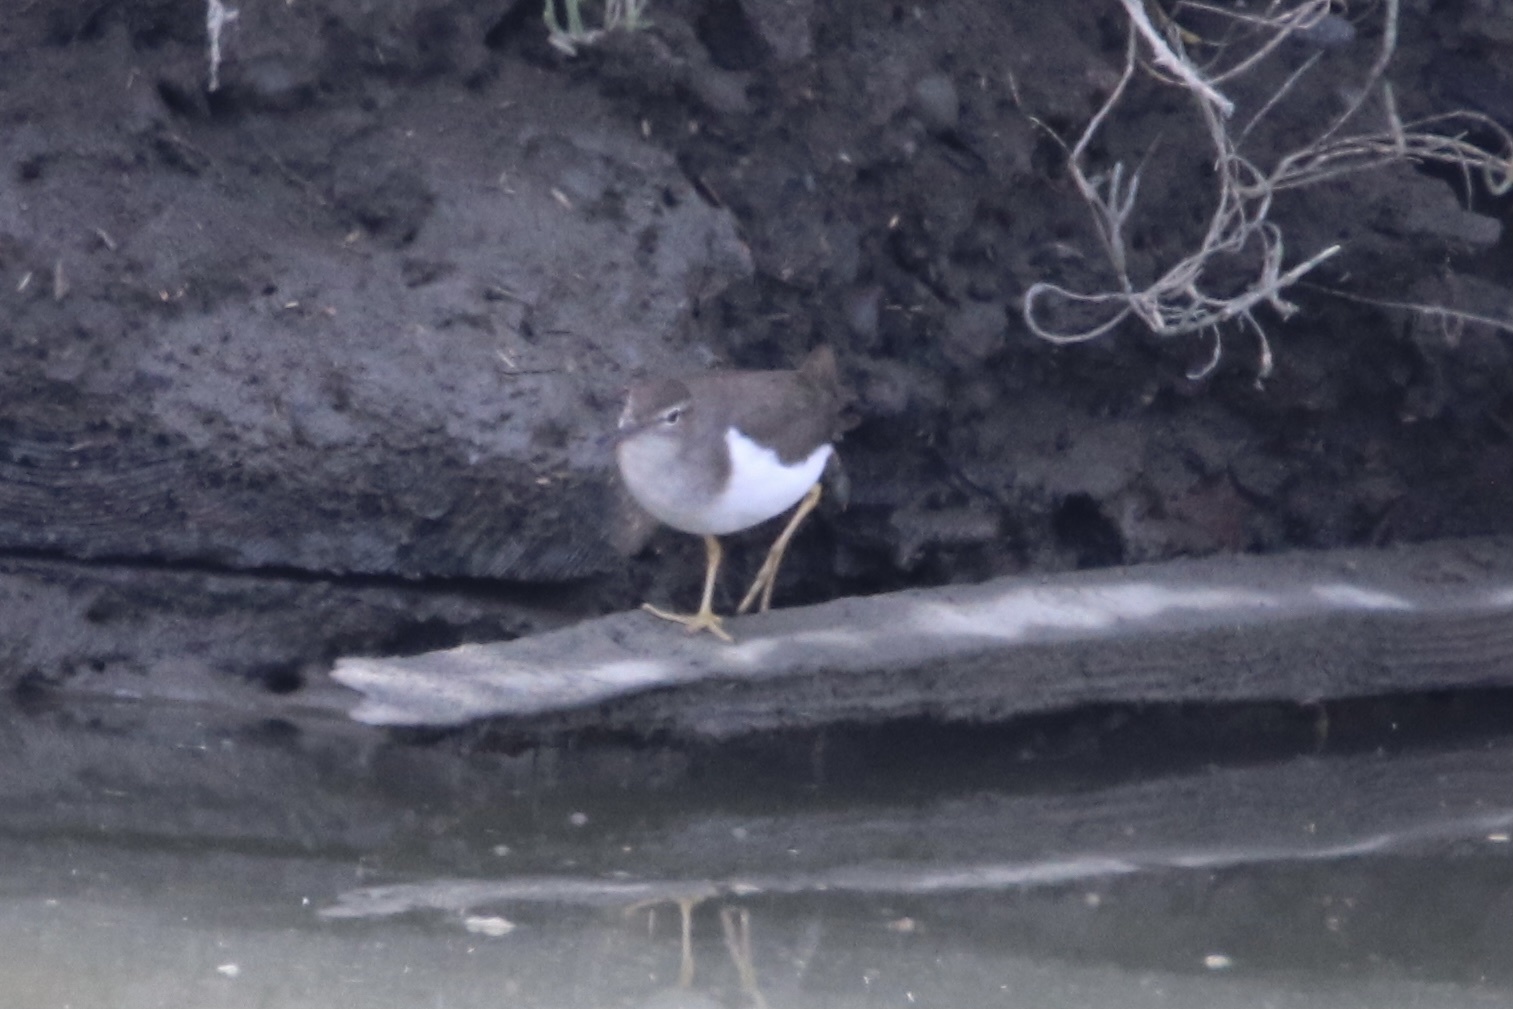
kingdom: Animalia
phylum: Chordata
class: Aves
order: Charadriiformes
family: Scolopacidae
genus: Actitis
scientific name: Actitis macularius
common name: Spotted sandpiper
